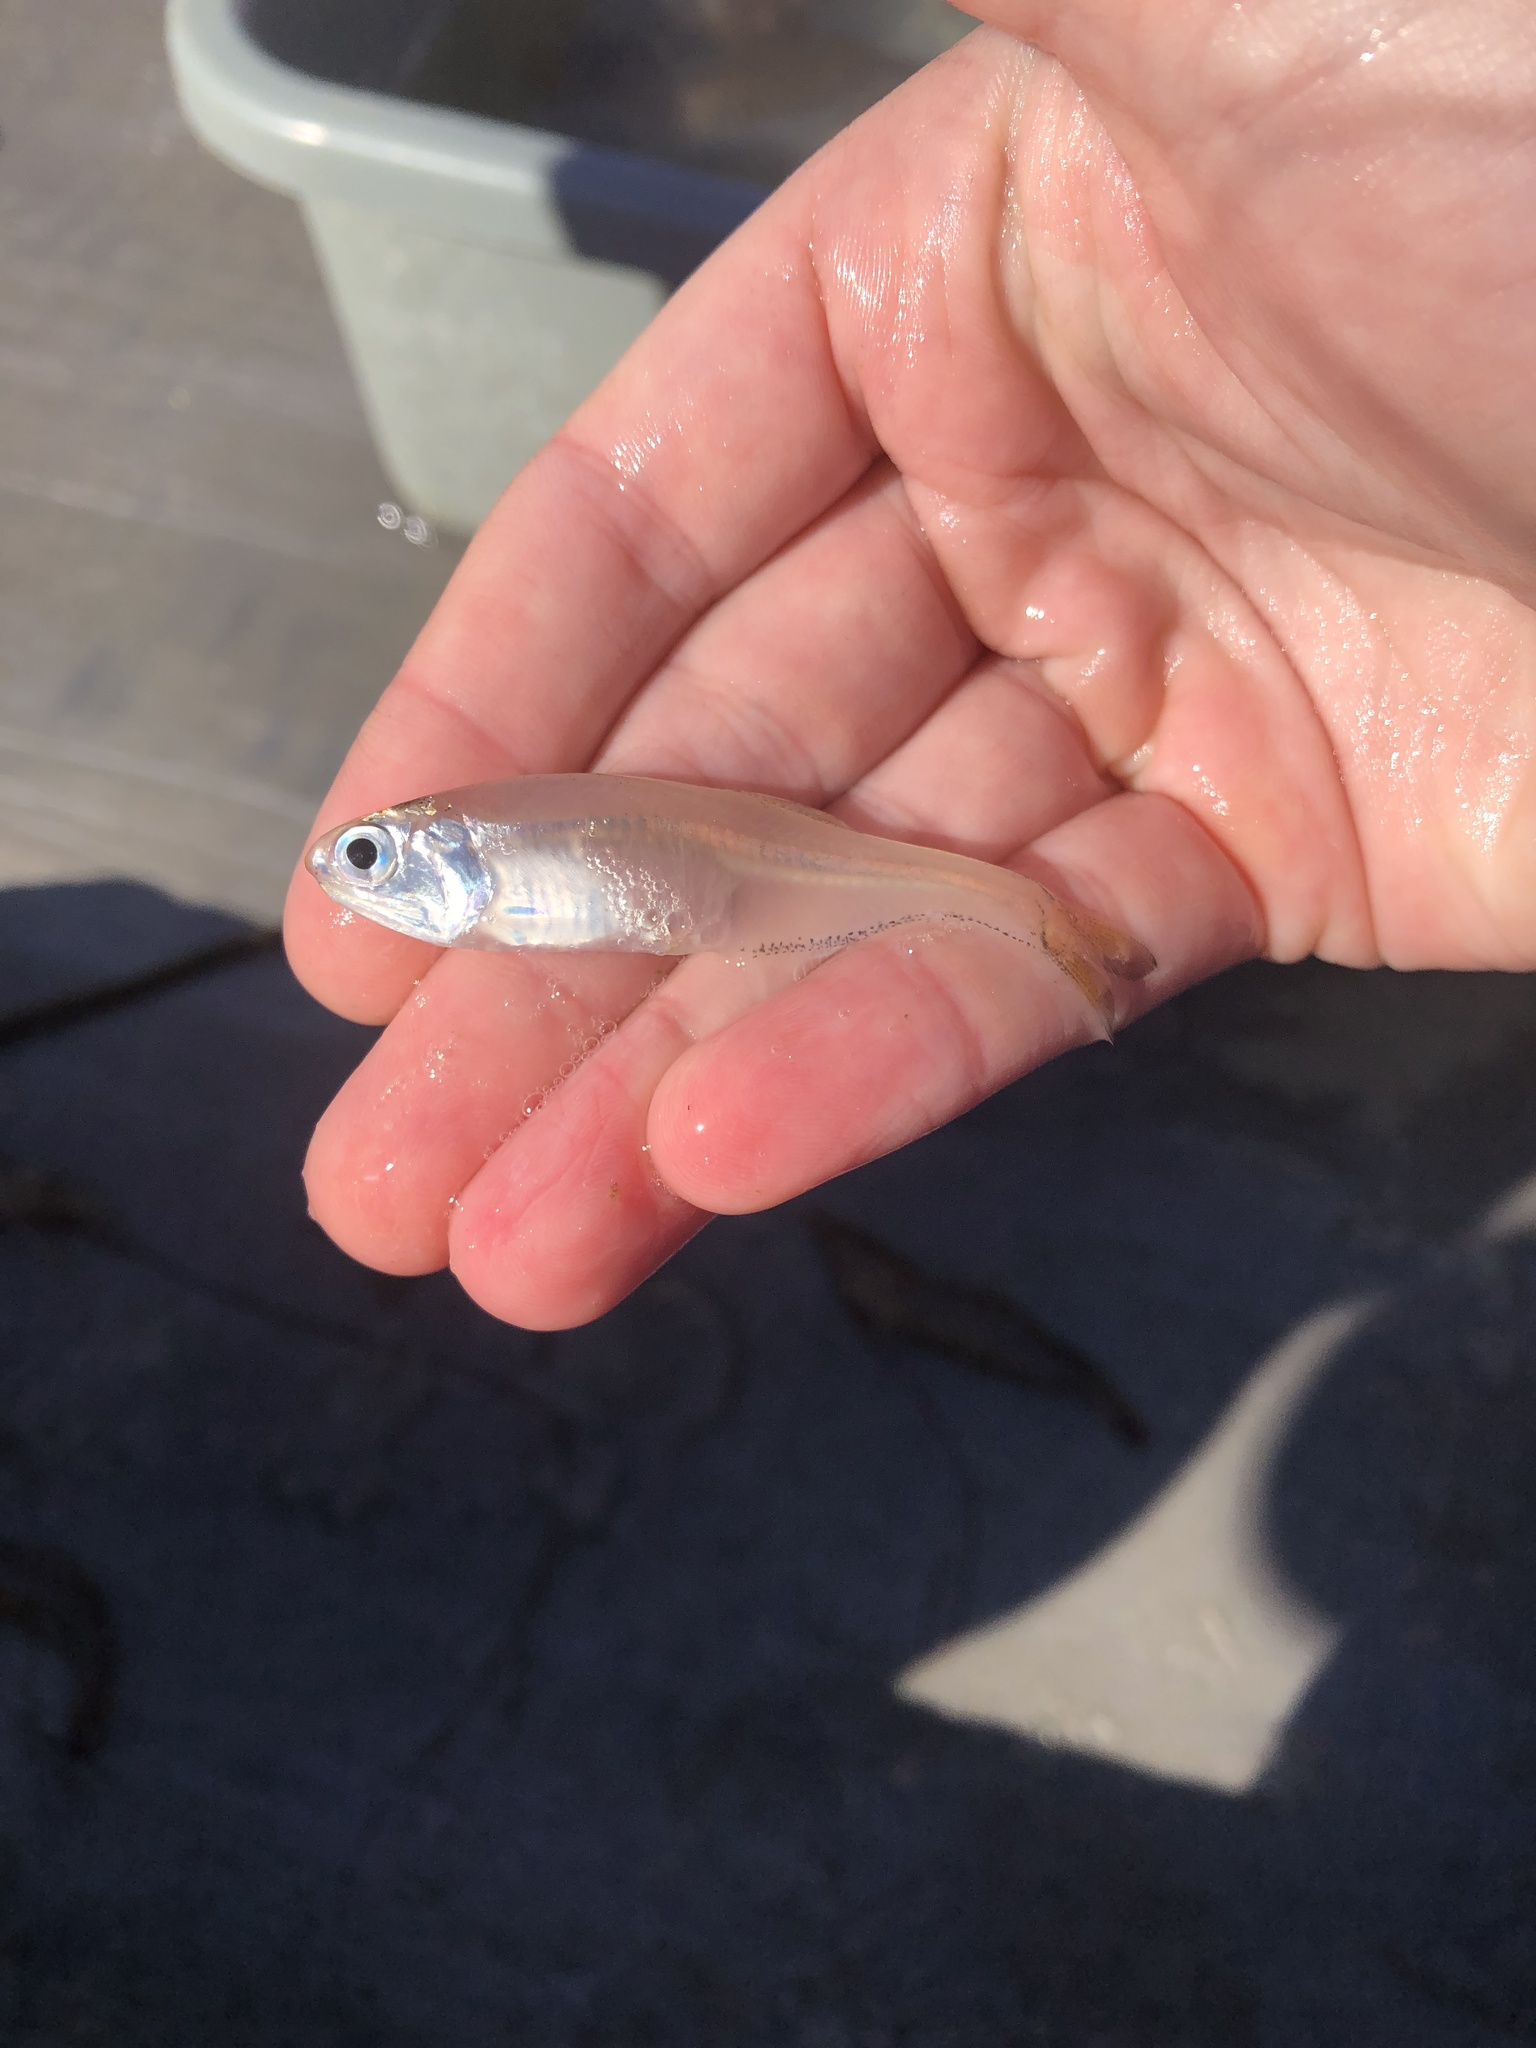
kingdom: Animalia
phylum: Chordata
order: Clupeiformes
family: Engraulidae
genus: Anchoa
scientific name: Anchoa mitchilli
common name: Bay anchovy
